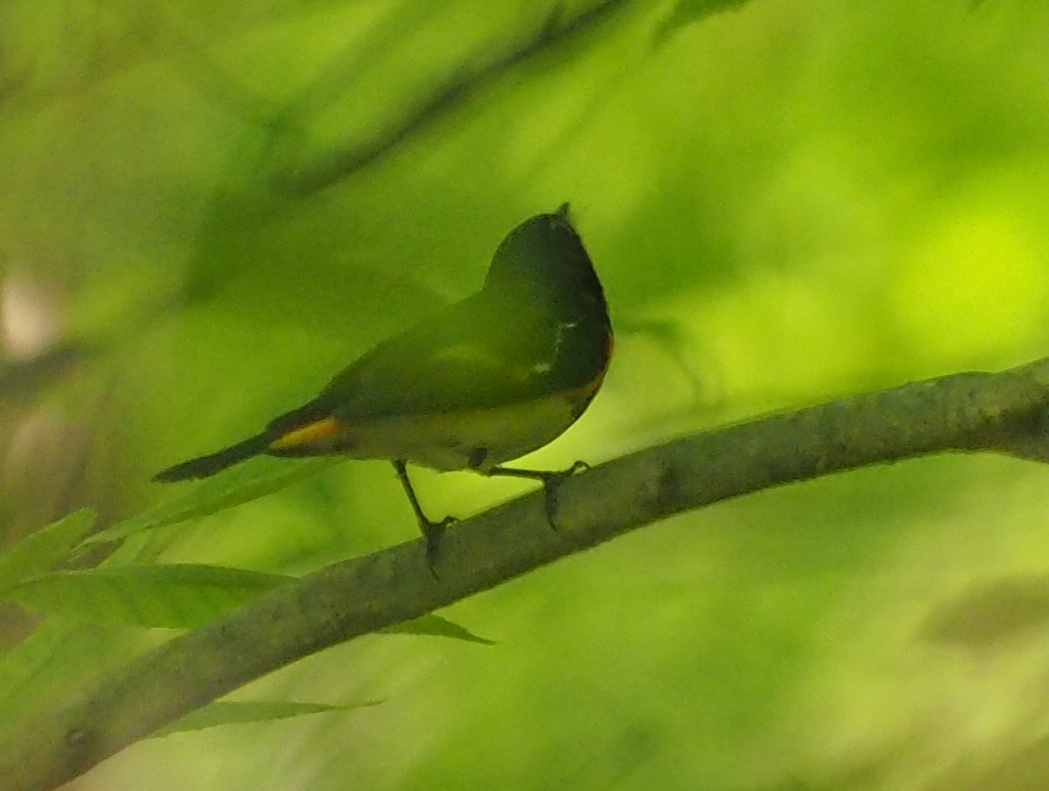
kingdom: Animalia
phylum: Chordata
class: Aves
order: Passeriformes
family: Parulidae
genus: Setophaga
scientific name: Setophaga ruticilla
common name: American redstart
